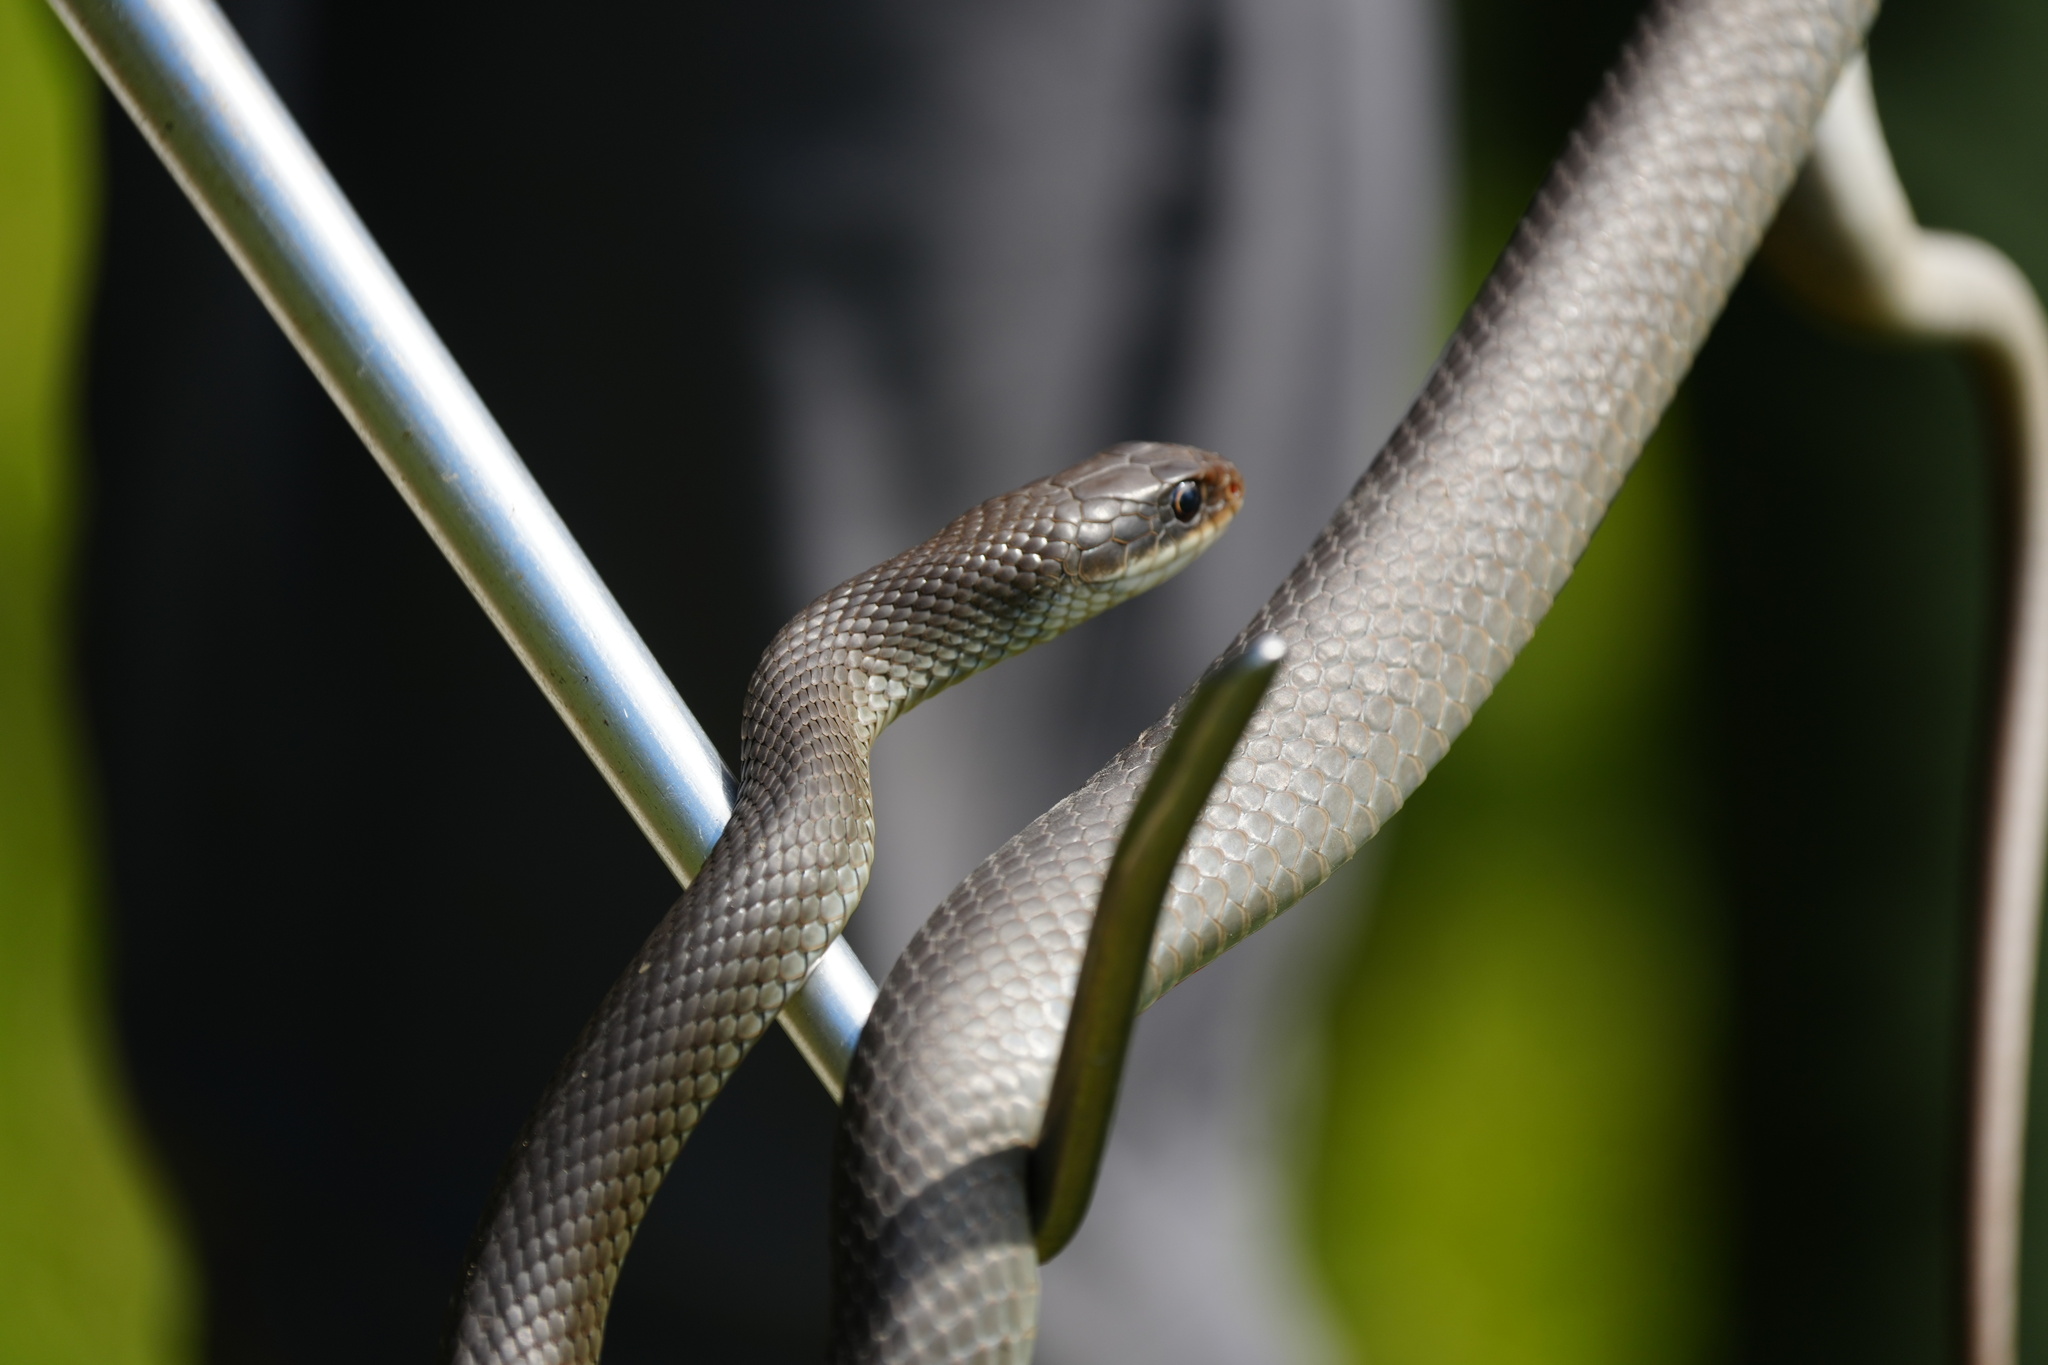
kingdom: Animalia
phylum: Chordata
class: Squamata
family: Colubridae
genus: Coluber
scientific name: Coluber constrictor
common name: Eastern racer
